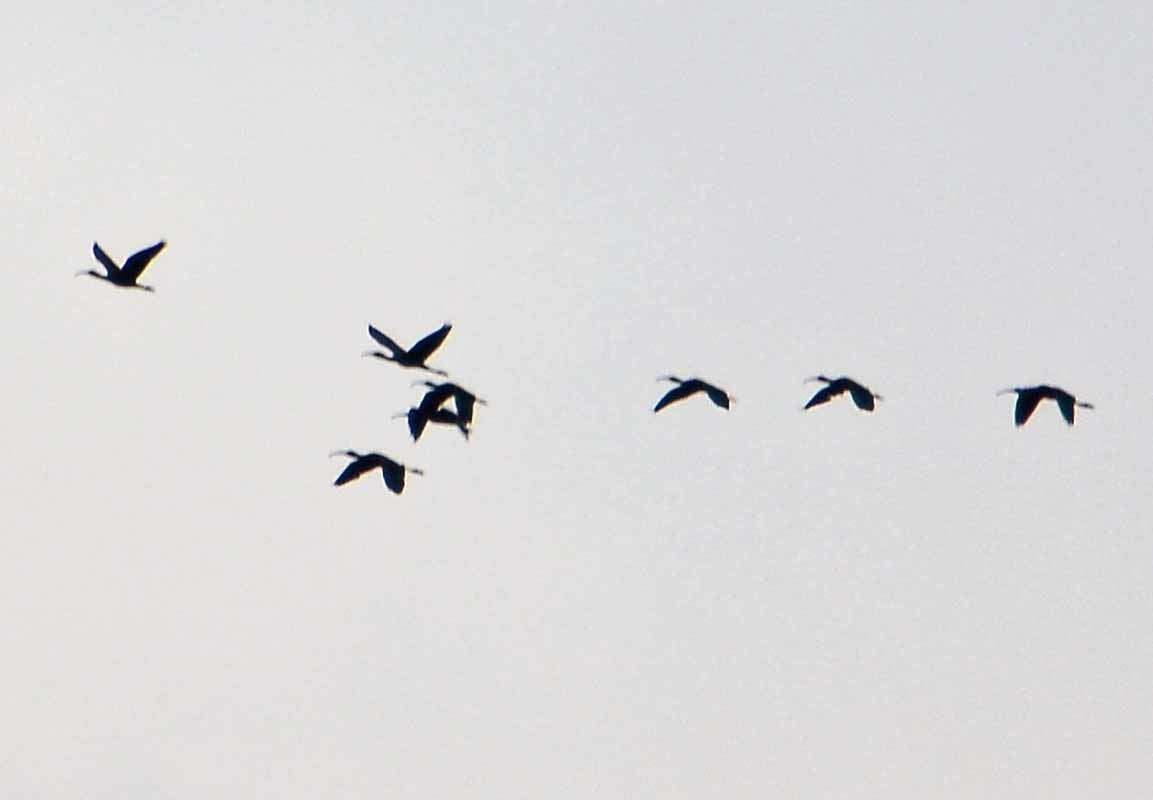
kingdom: Animalia
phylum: Chordata
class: Aves
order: Pelecaniformes
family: Threskiornithidae
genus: Plegadis
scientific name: Plegadis chihi
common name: White-faced ibis
